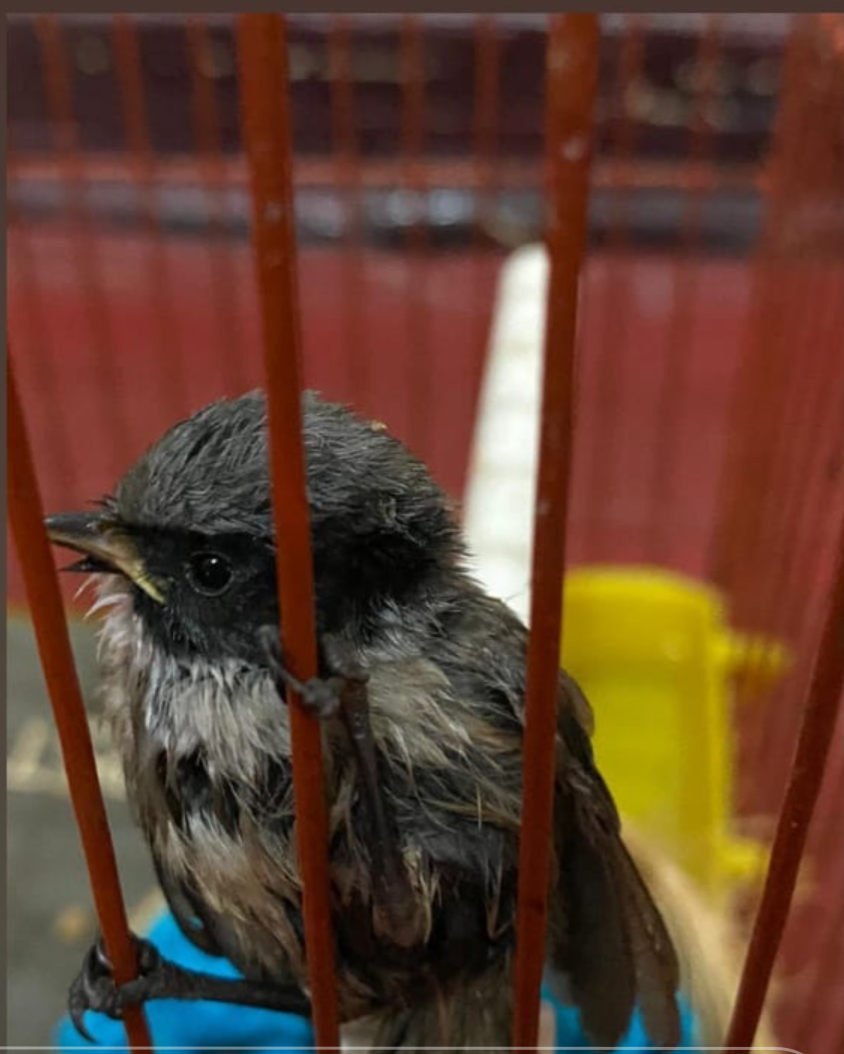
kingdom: Animalia
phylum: Chordata
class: Aves
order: Passeriformes
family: Aegithalidae
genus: Psaltriparus
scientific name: Psaltriparus minimus
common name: American bushtit
